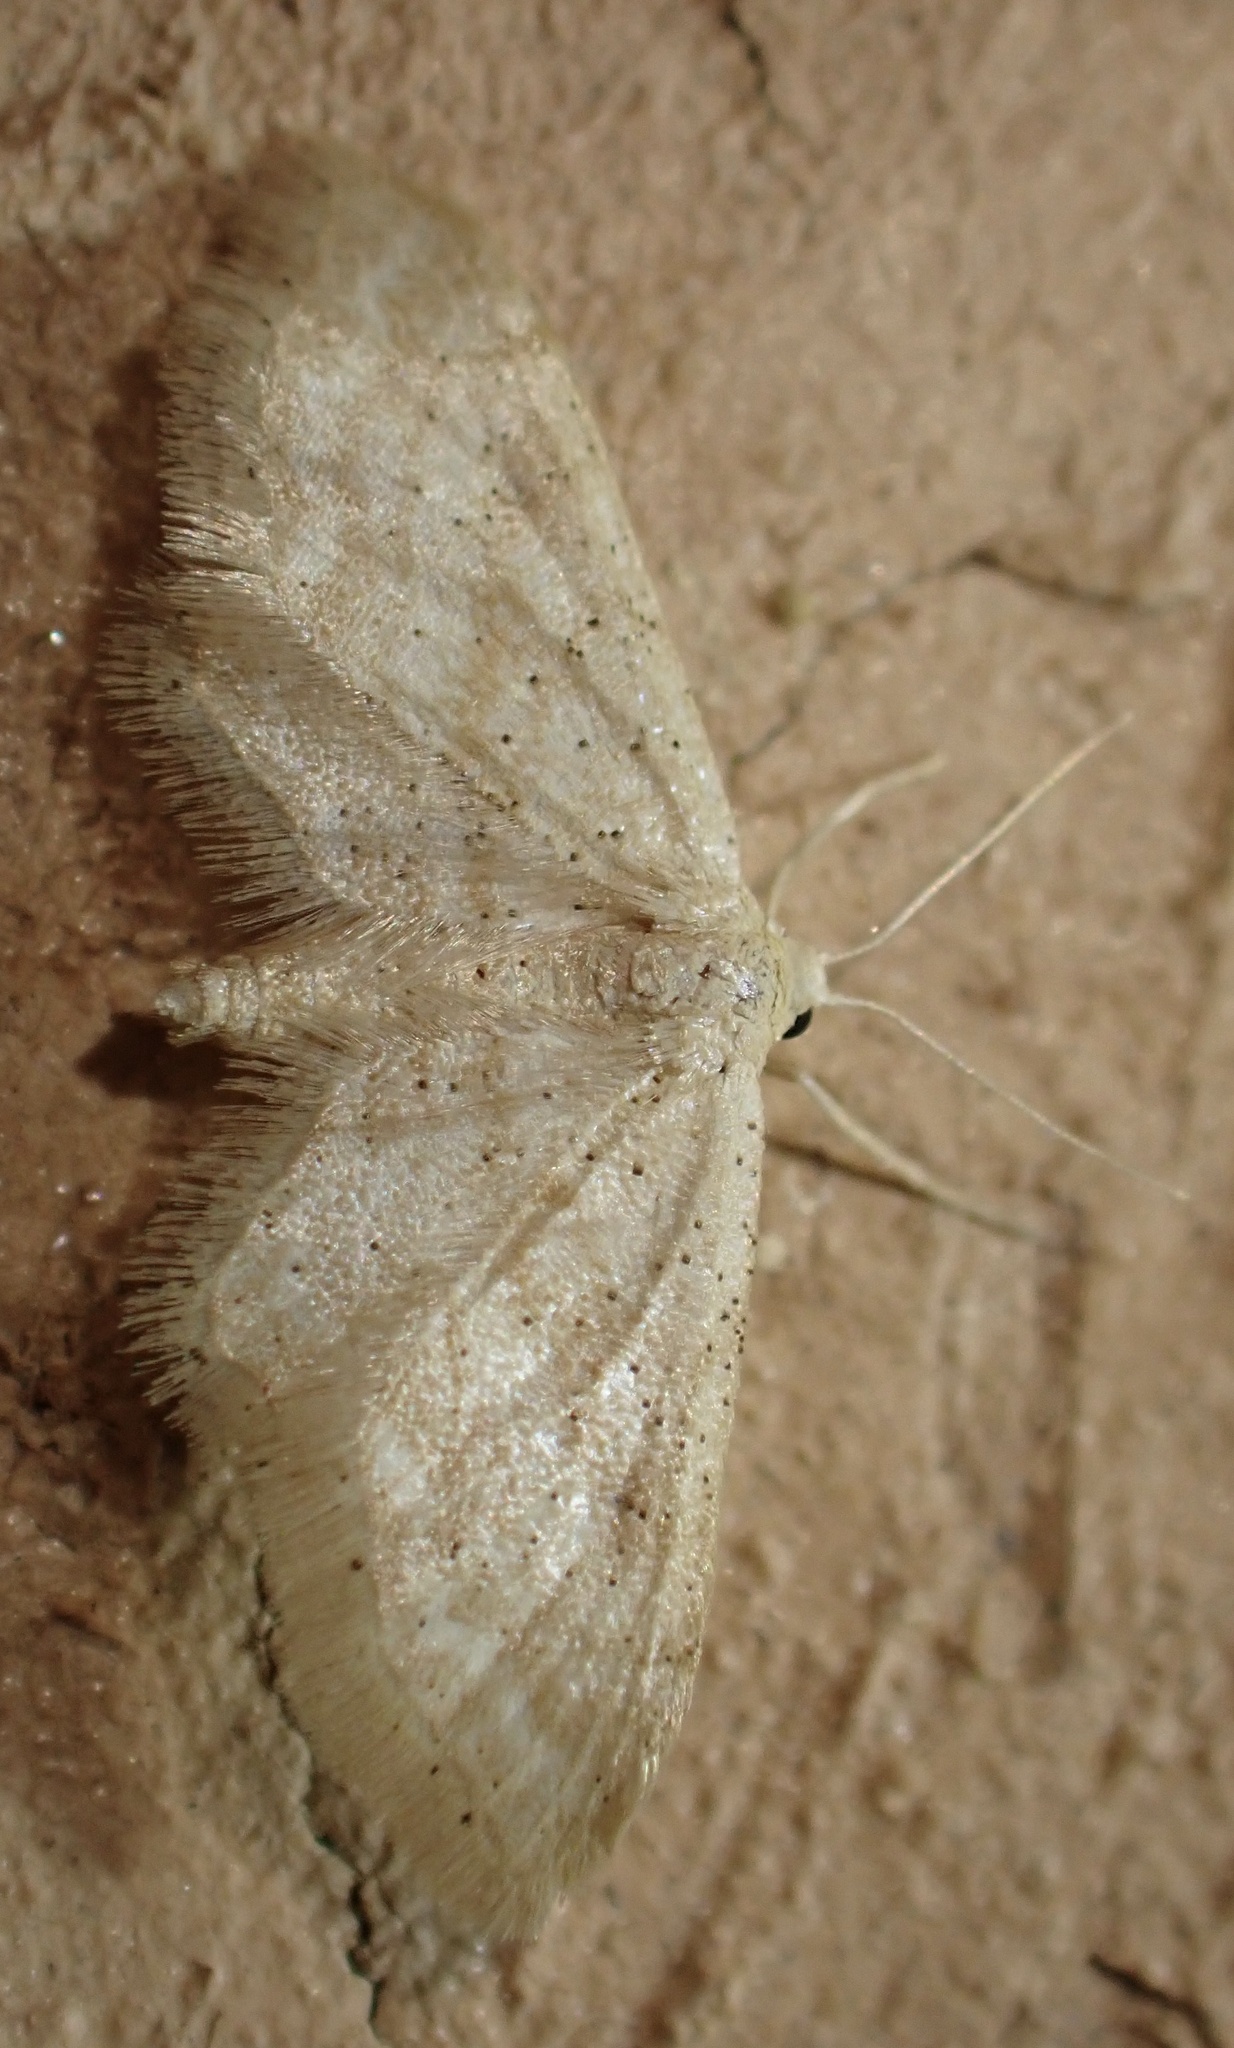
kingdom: Animalia
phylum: Arthropoda
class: Insecta
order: Lepidoptera
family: Geometridae
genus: Idaea
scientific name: Idaea fractilineata
